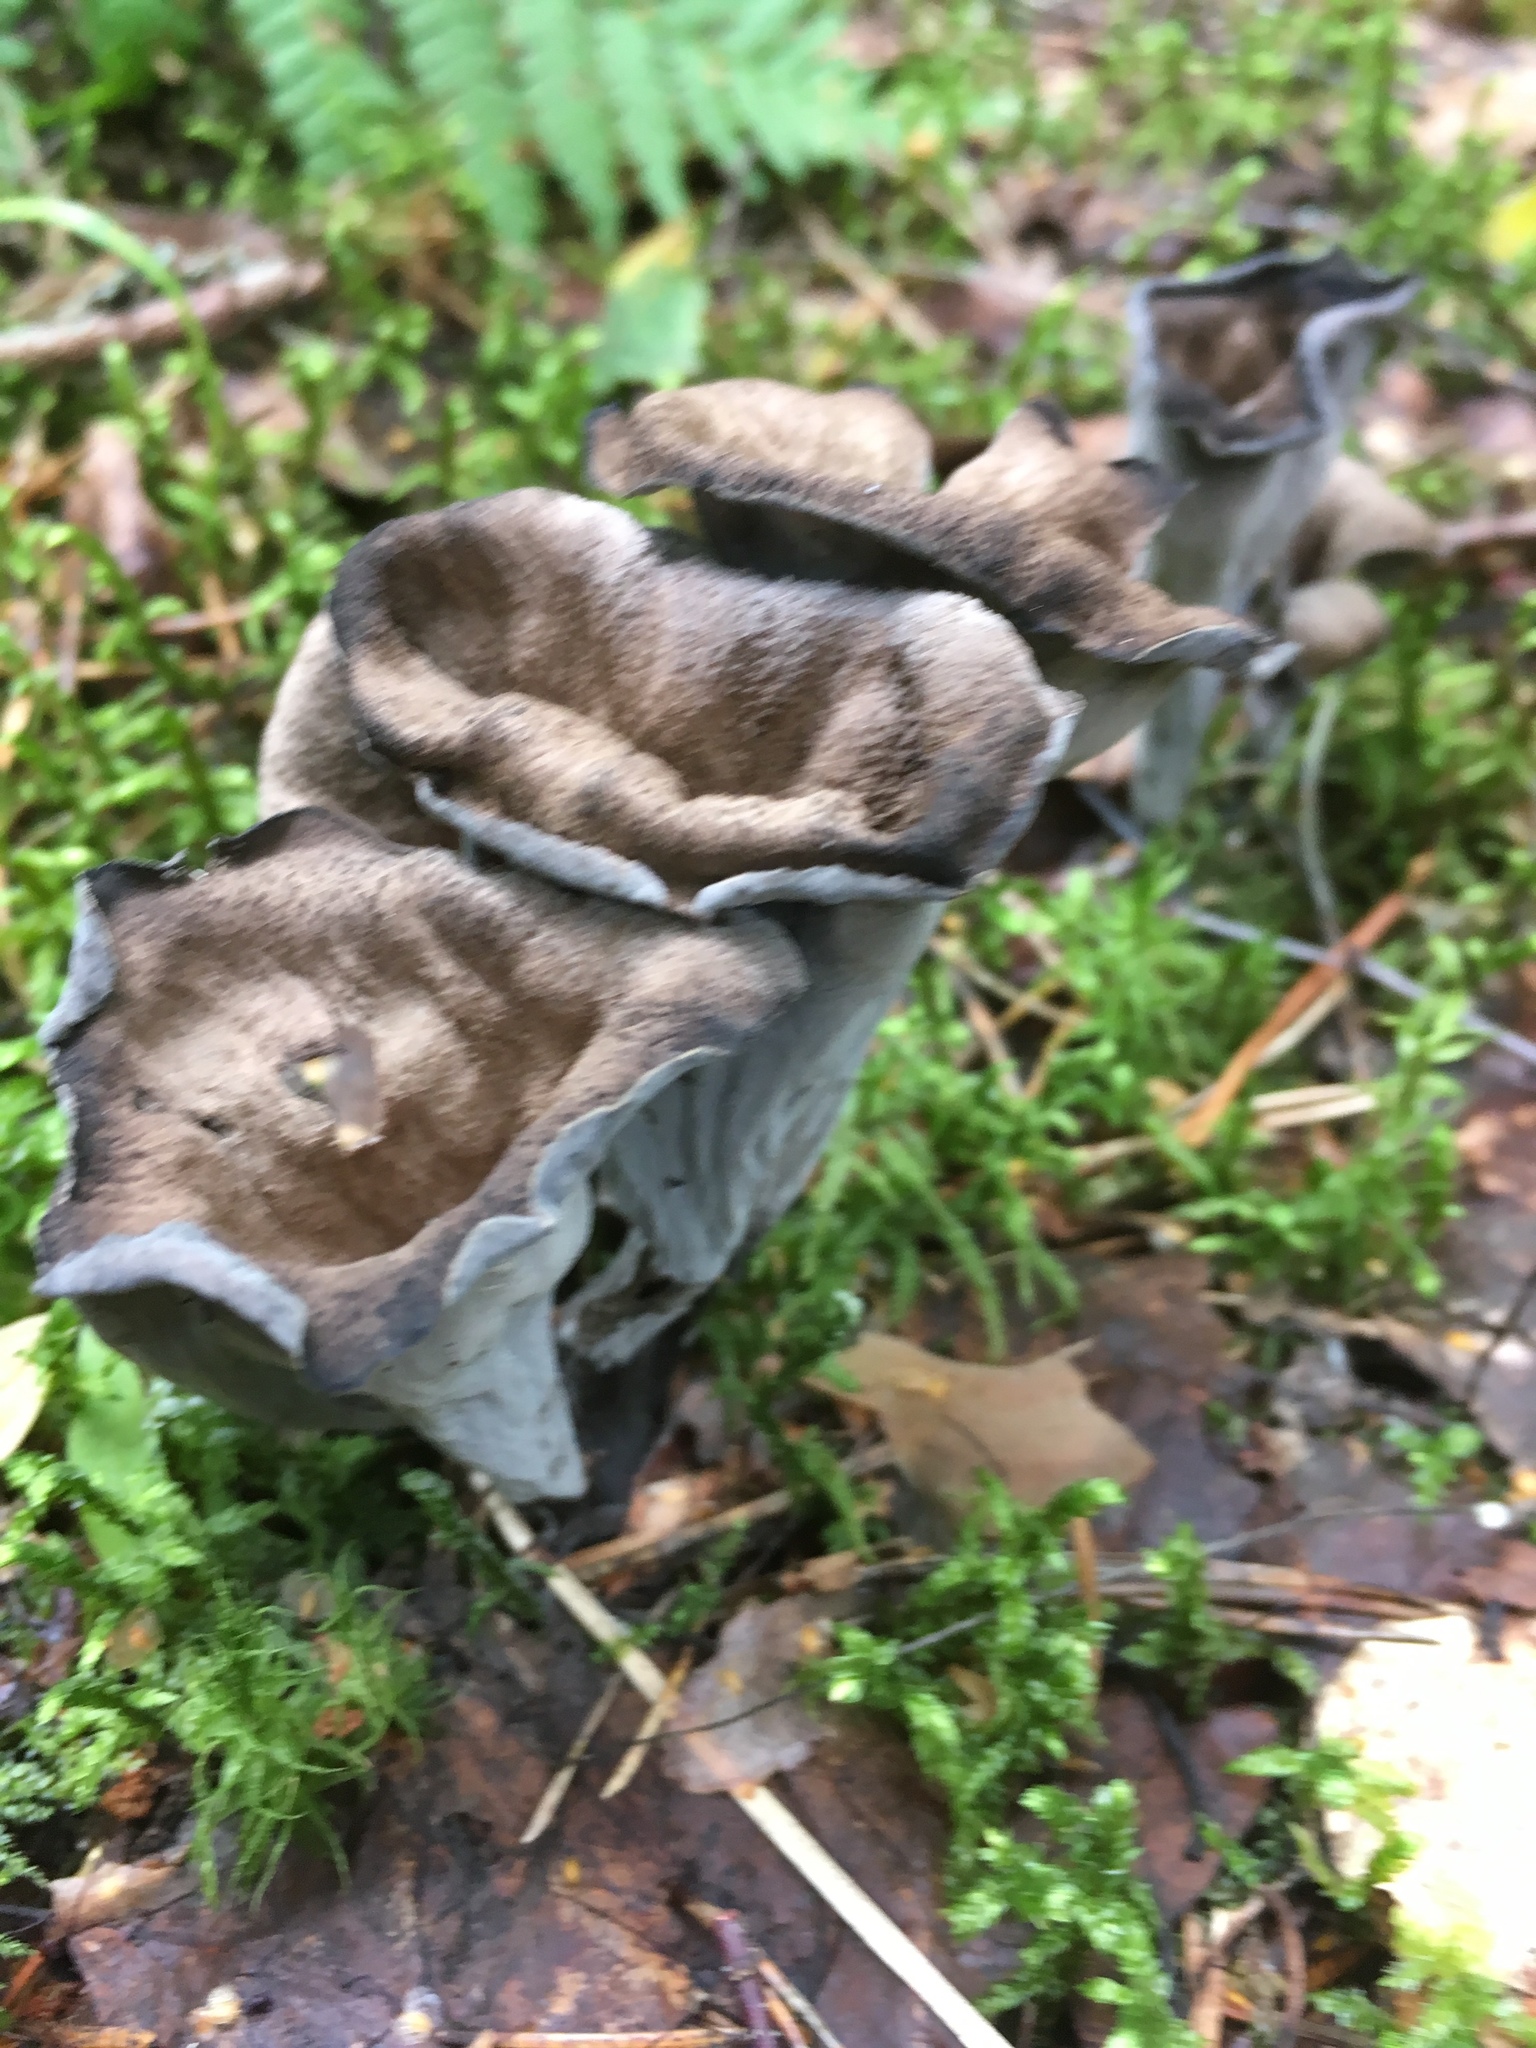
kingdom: Fungi
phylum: Basidiomycota
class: Agaricomycetes
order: Cantharellales
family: Hydnaceae
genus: Craterellus
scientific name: Craterellus cornucopioides
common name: Horn of plenty
